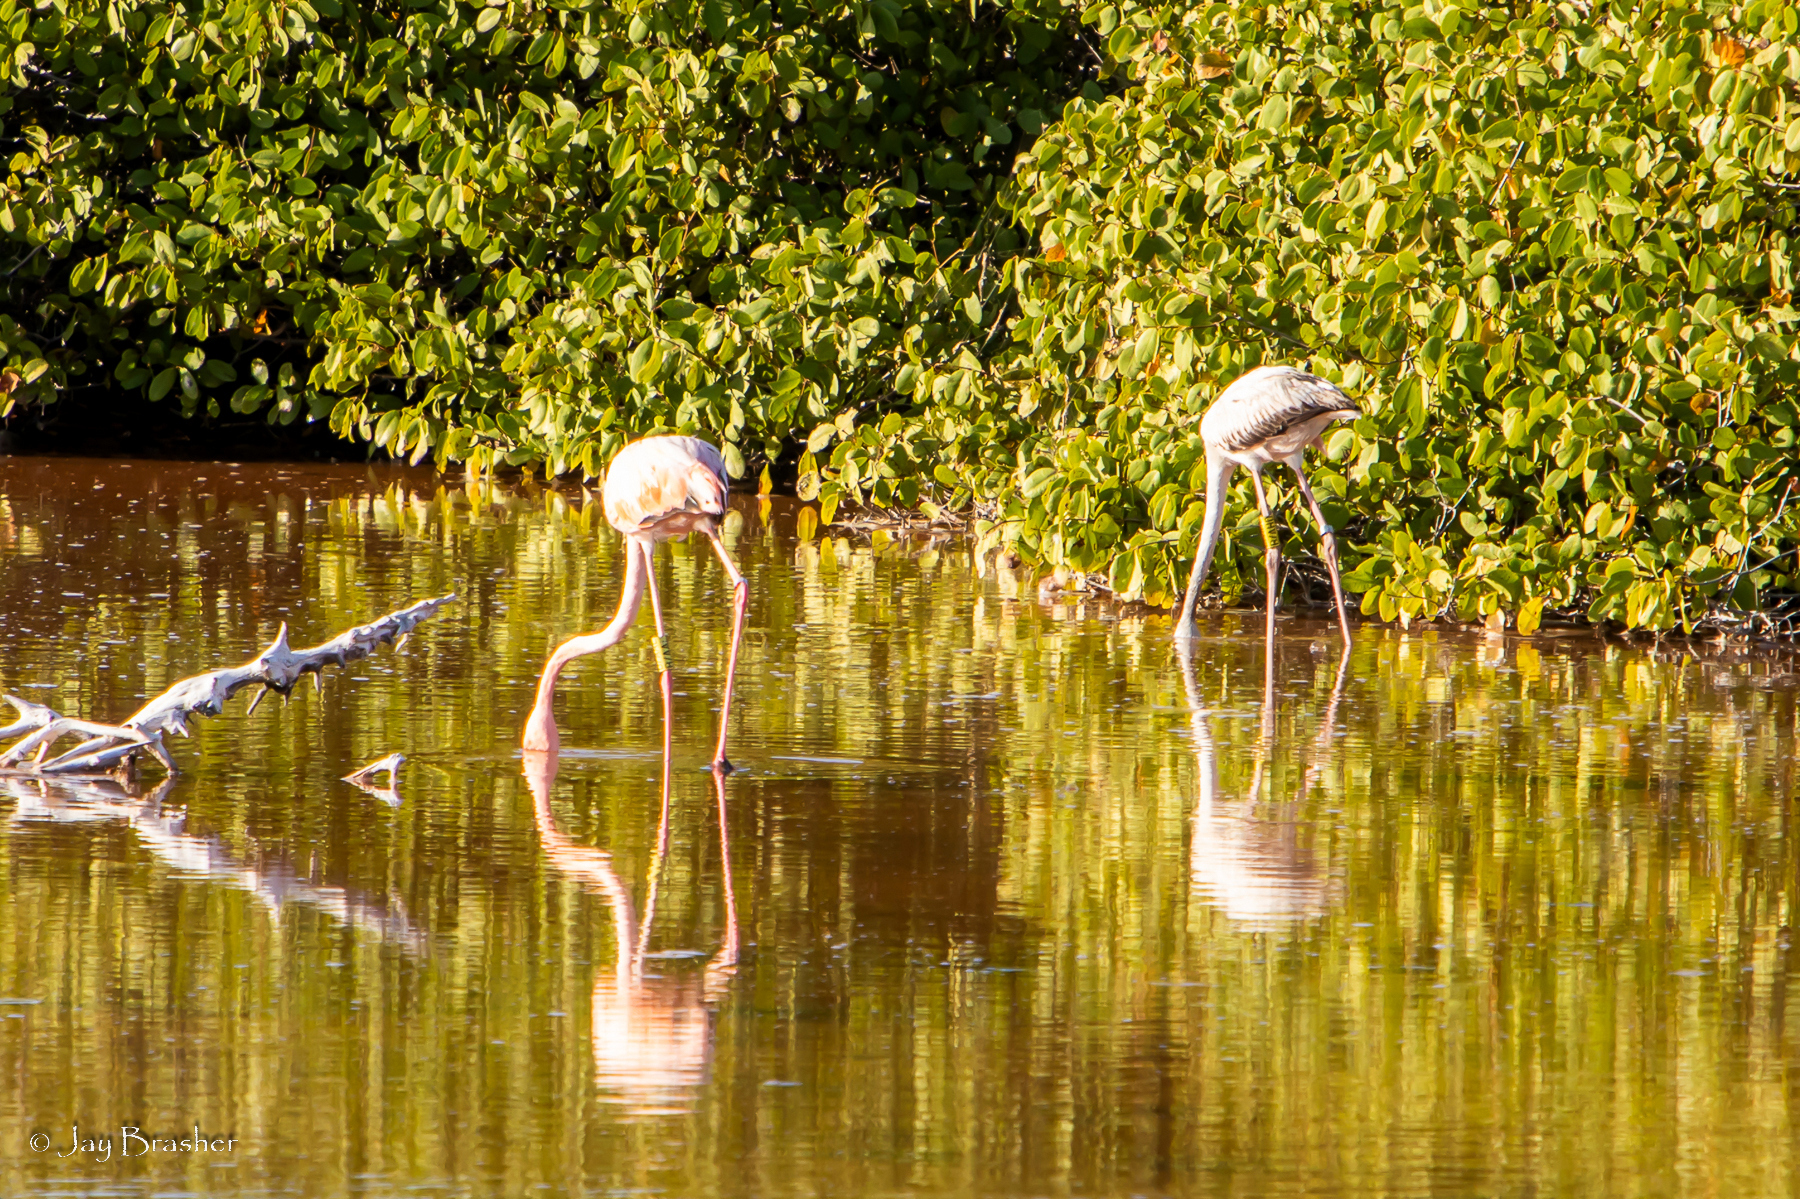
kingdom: Animalia
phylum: Chordata
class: Aves
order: Phoenicopteriformes
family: Phoenicopteridae
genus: Phoenicopterus
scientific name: Phoenicopterus ruber
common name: American flamingo
